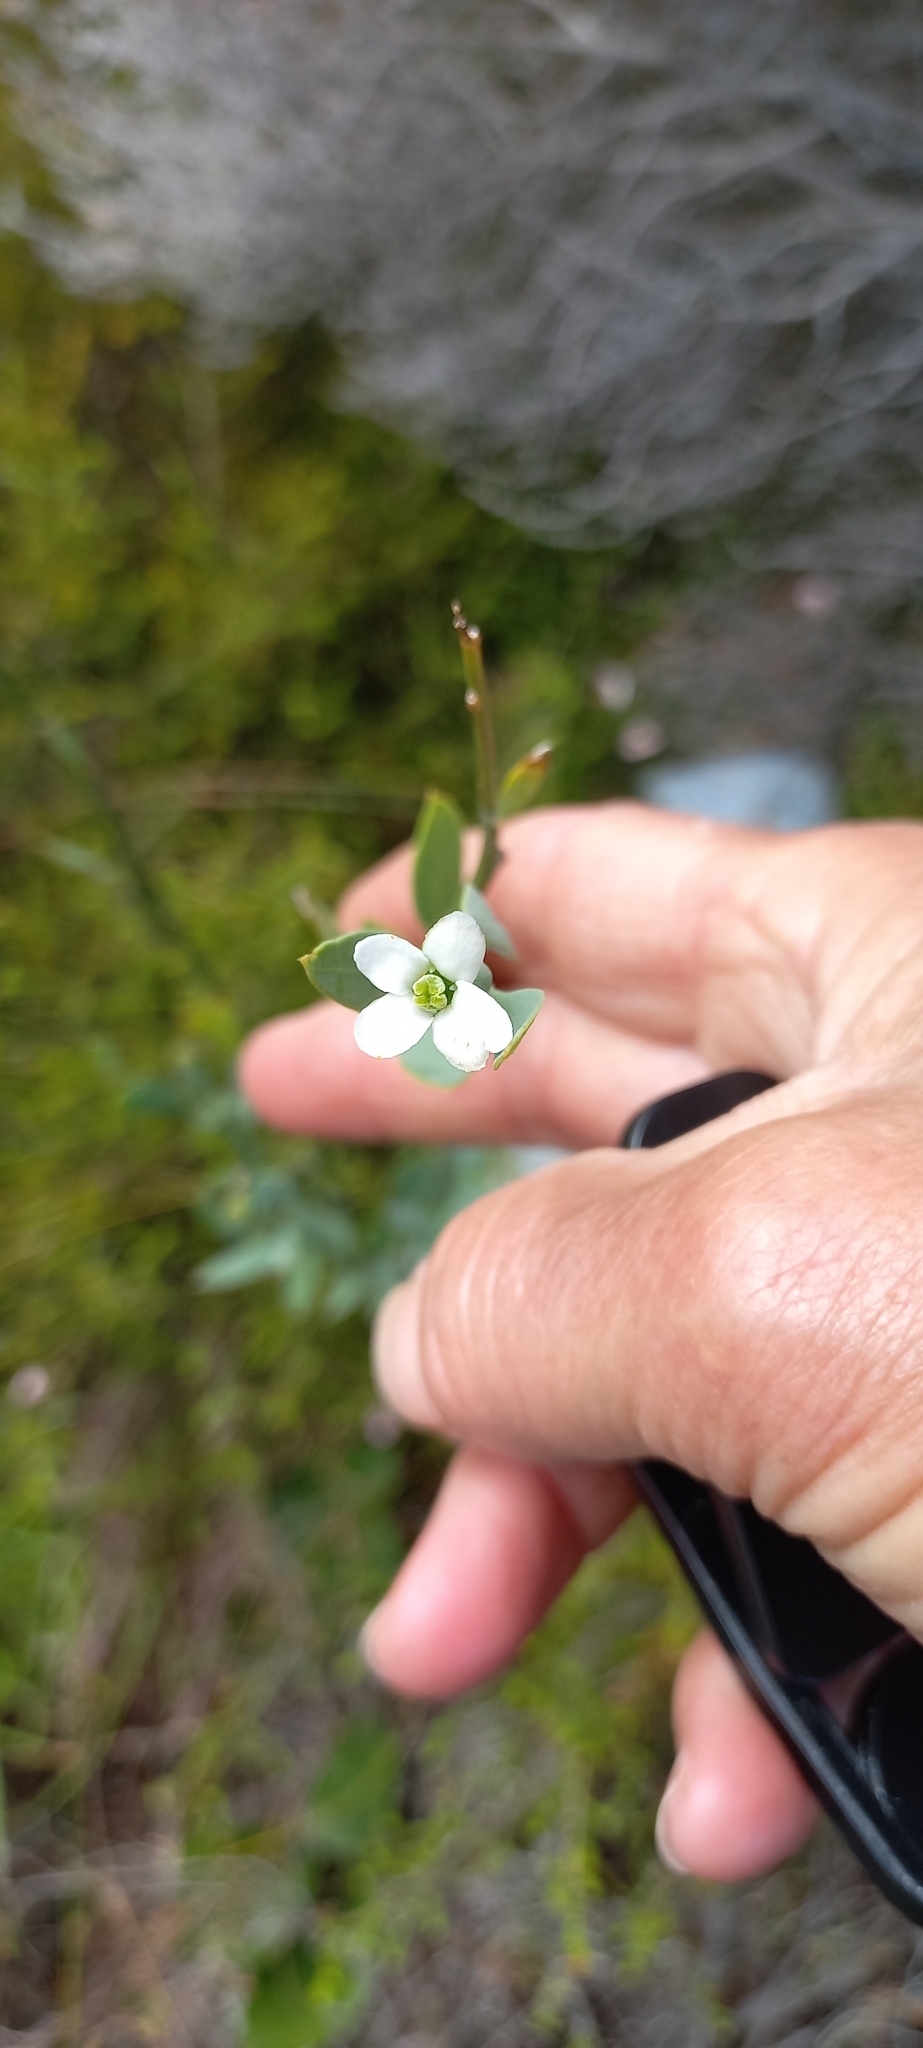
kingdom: Plantae
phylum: Tracheophyta
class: Magnoliopsida
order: Solanales
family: Montiniaceae
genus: Montinia
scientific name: Montinia caryophyllacea
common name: Wild clove-bush
